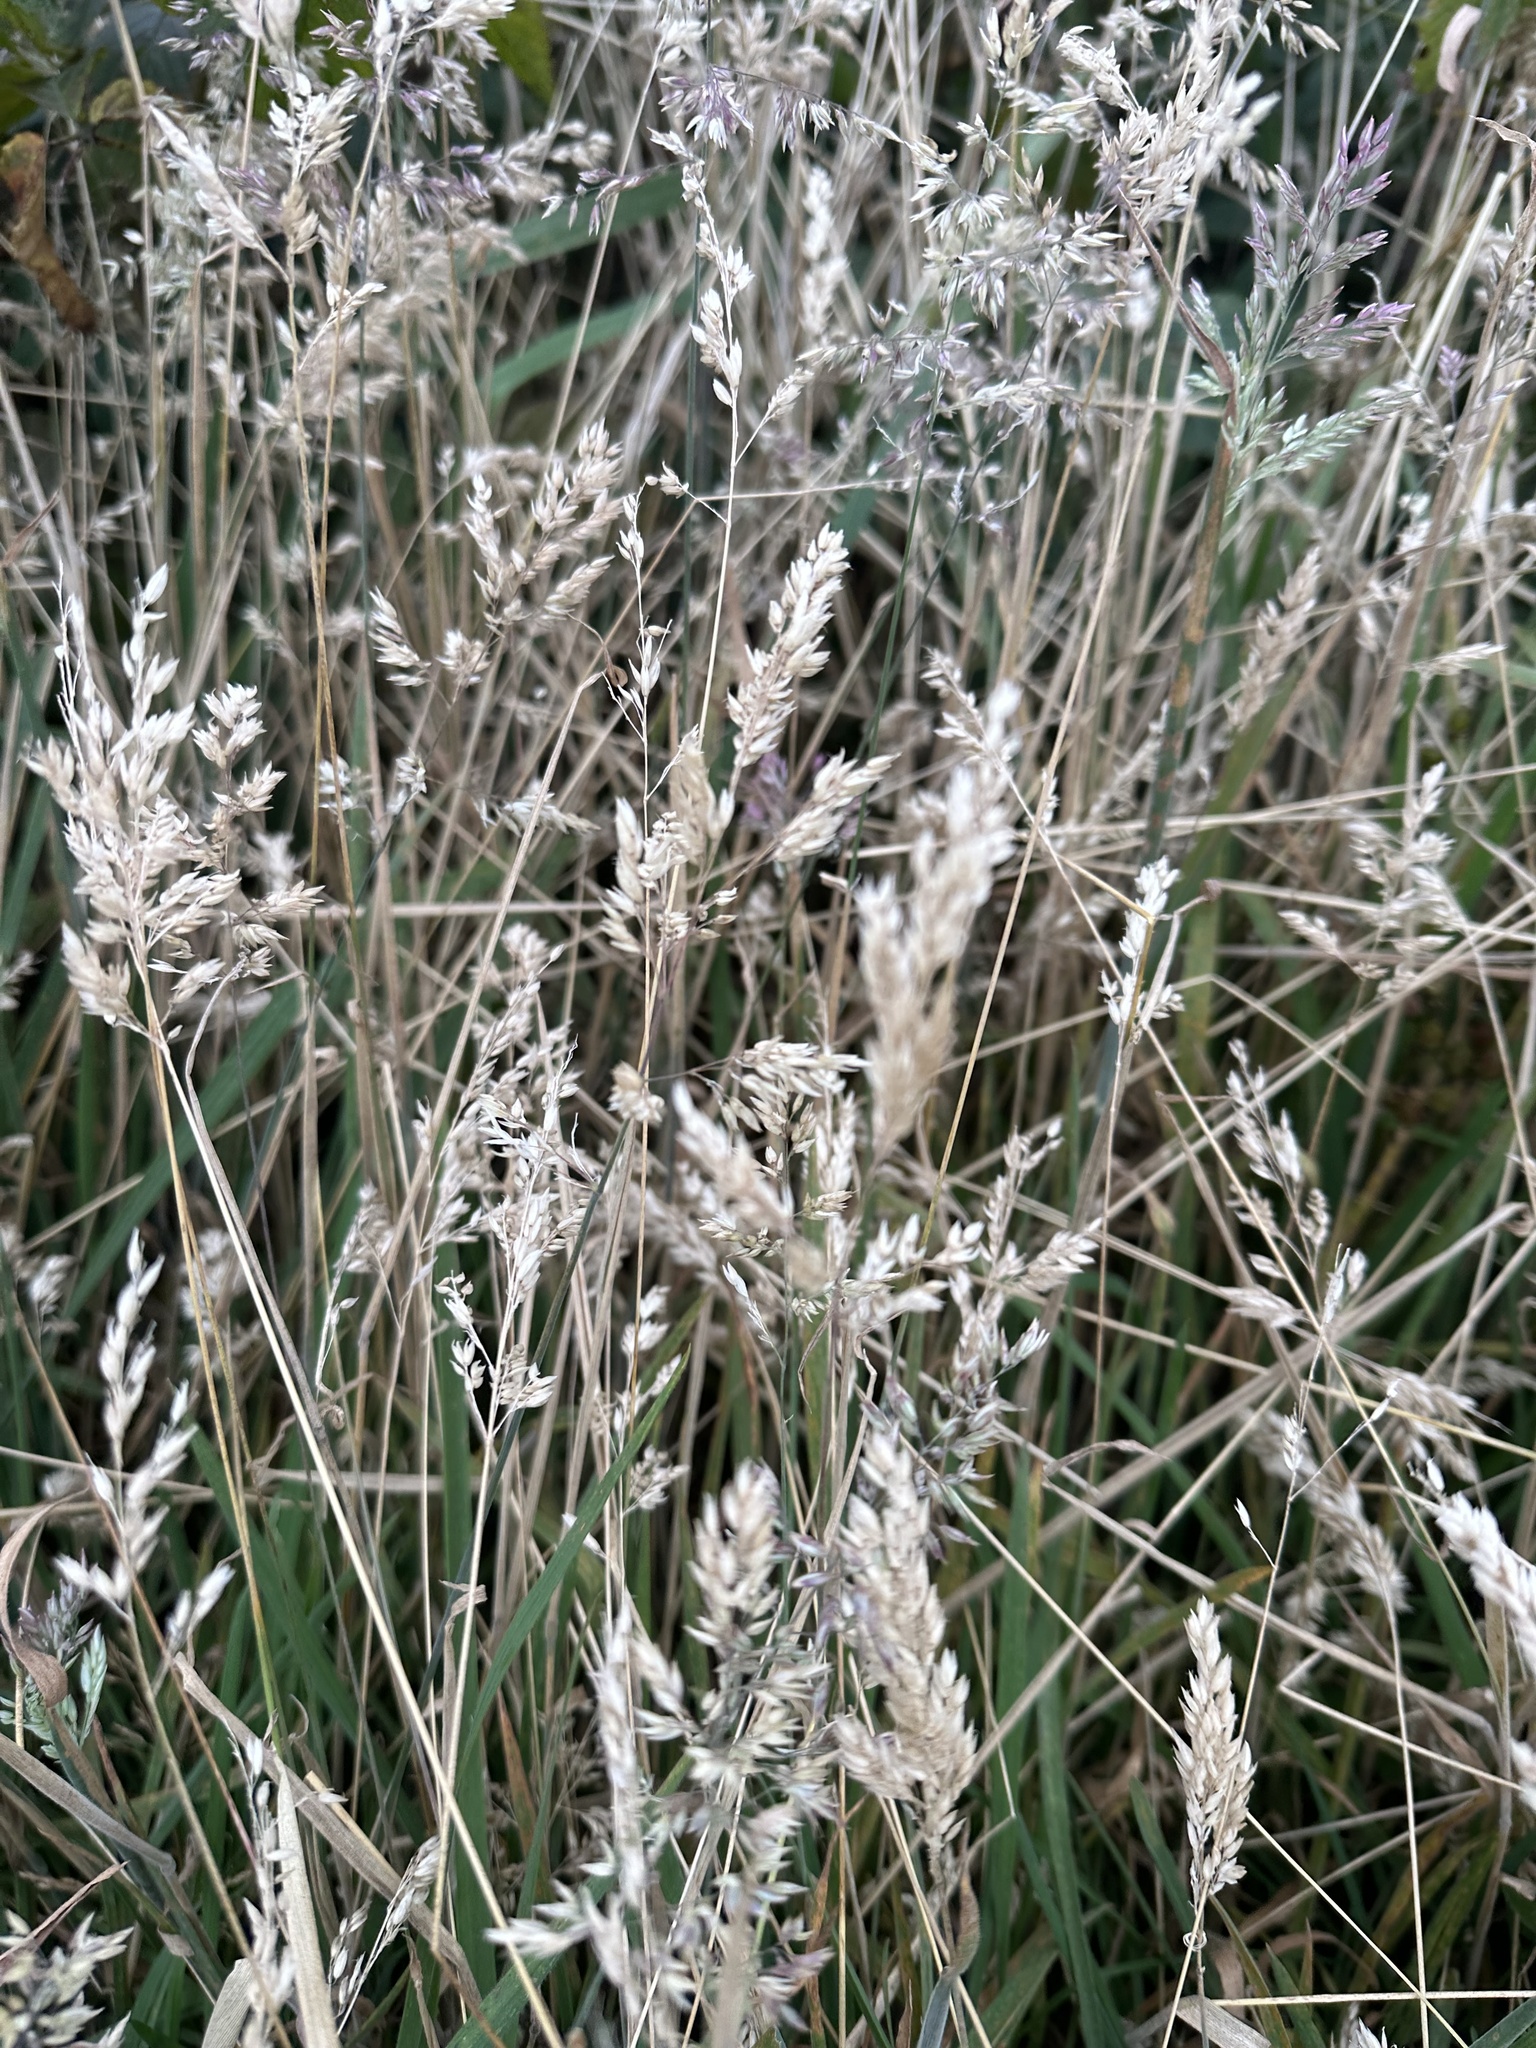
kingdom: Plantae
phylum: Tracheophyta
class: Liliopsida
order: Poales
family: Poaceae
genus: Holcus
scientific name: Holcus lanatus
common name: Yorkshire-fog
